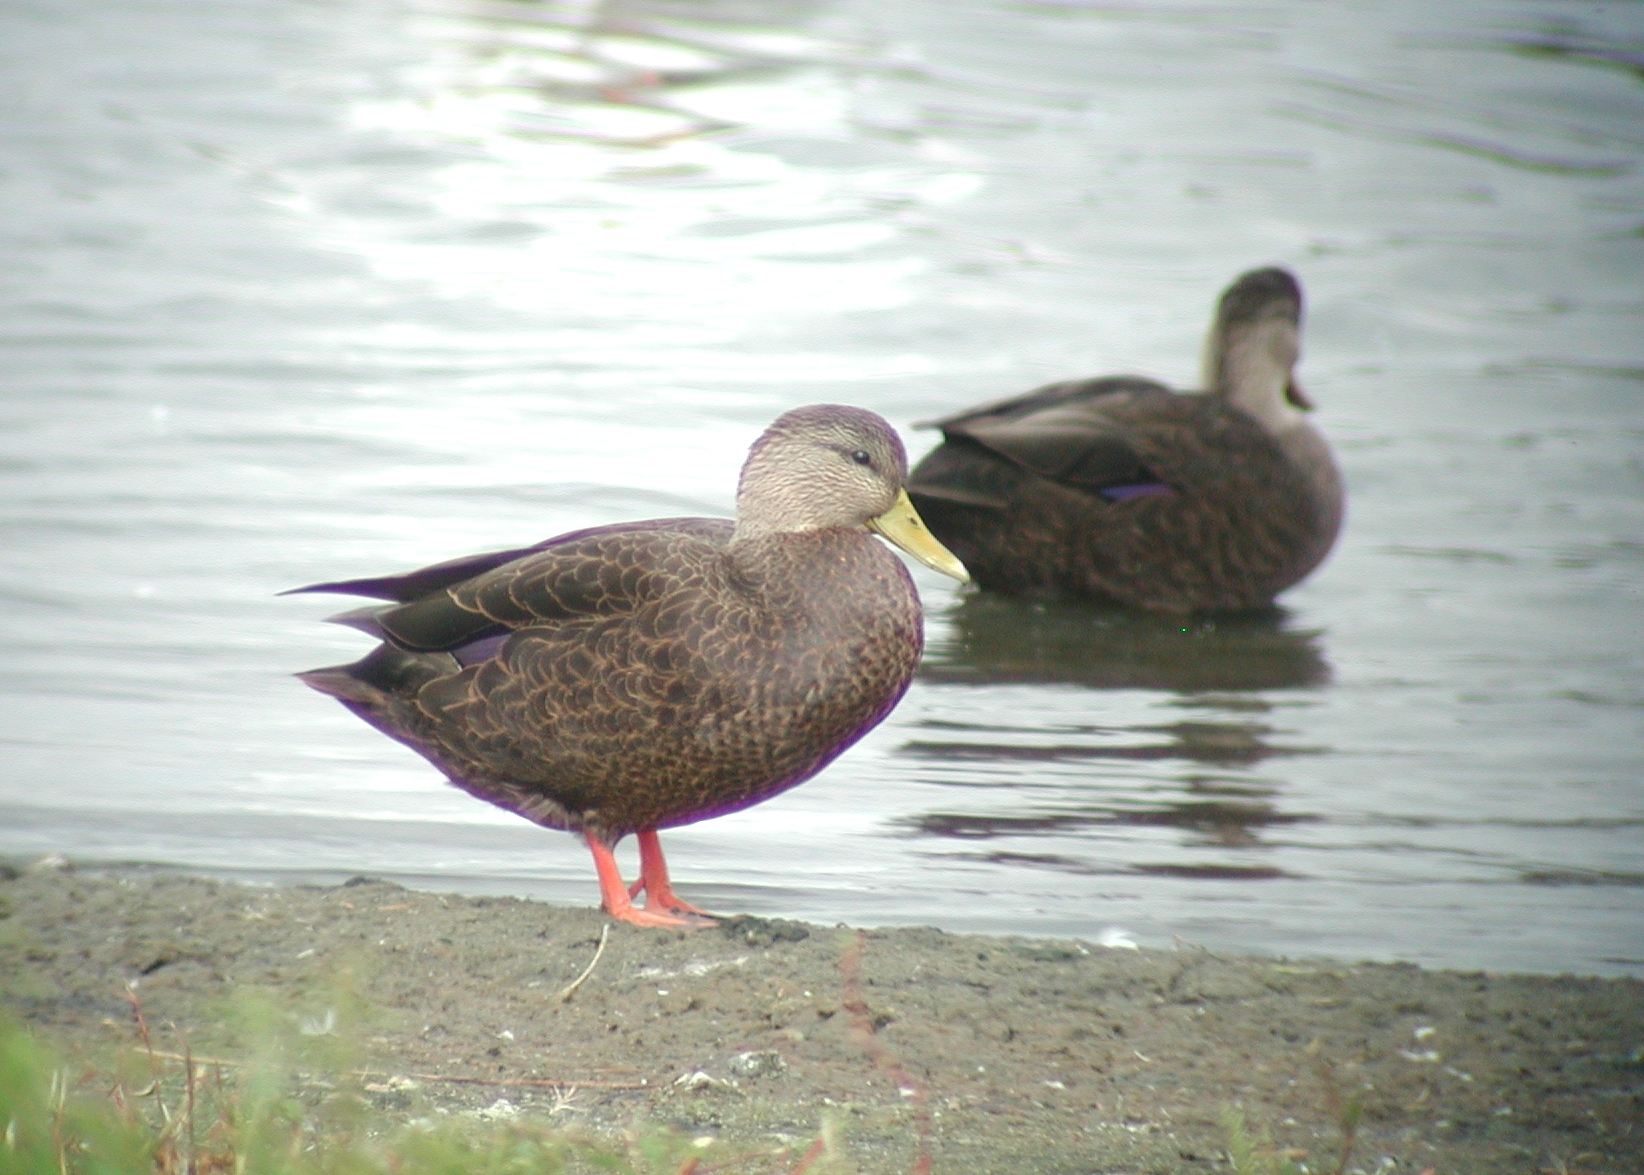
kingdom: Animalia
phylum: Chordata
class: Aves
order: Anseriformes
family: Anatidae
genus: Anas
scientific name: Anas rubripes
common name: American black duck
